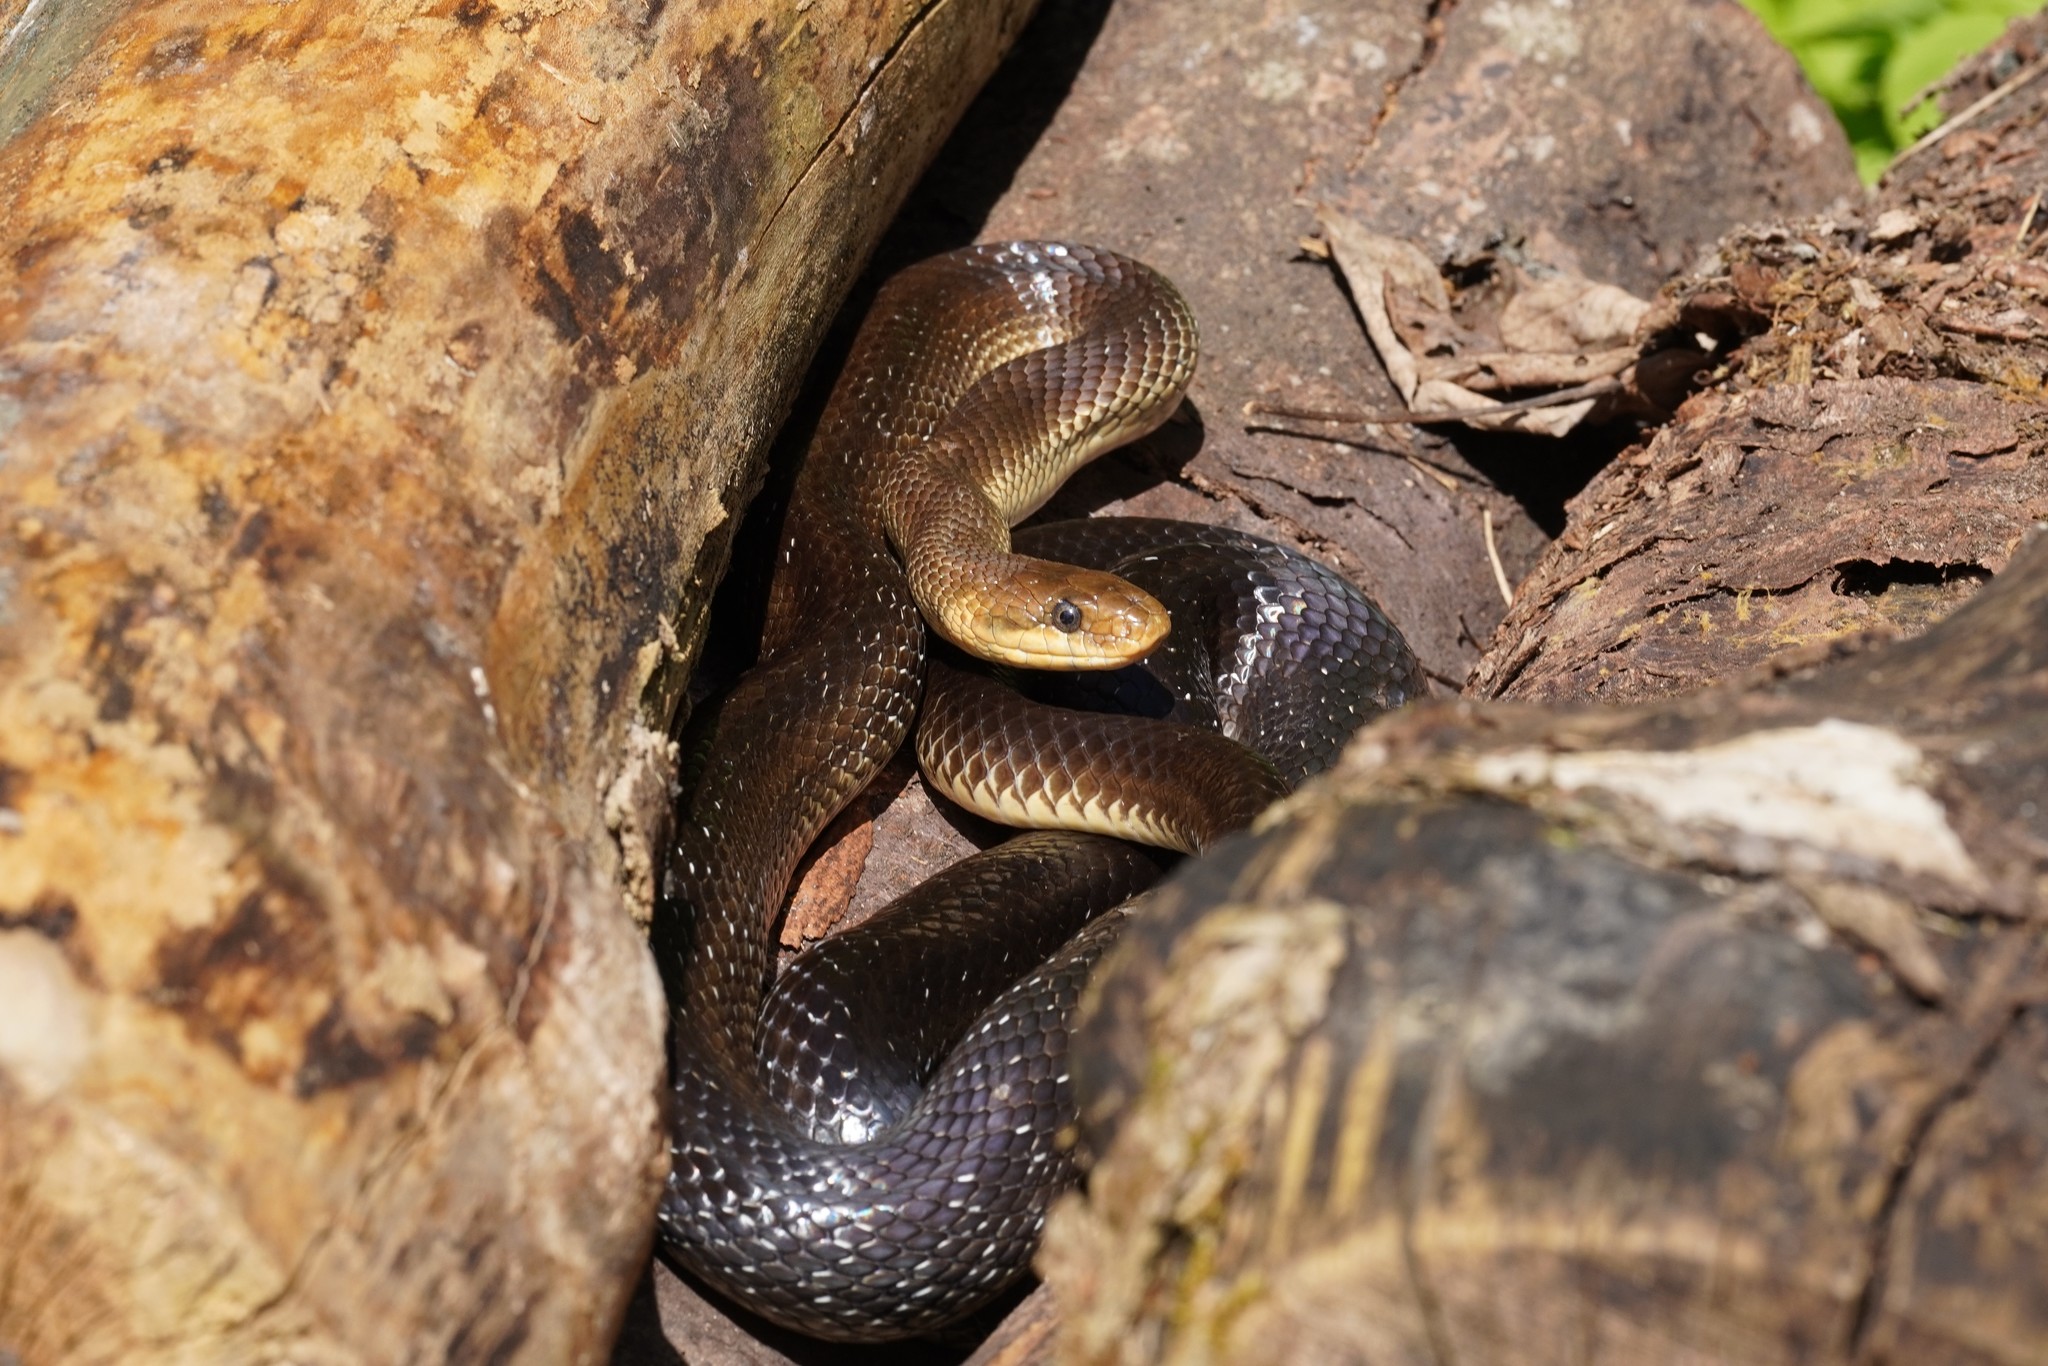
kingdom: Animalia
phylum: Chordata
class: Squamata
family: Colubridae
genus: Zamenis
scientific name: Zamenis longissimus
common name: Aesculapean snake
